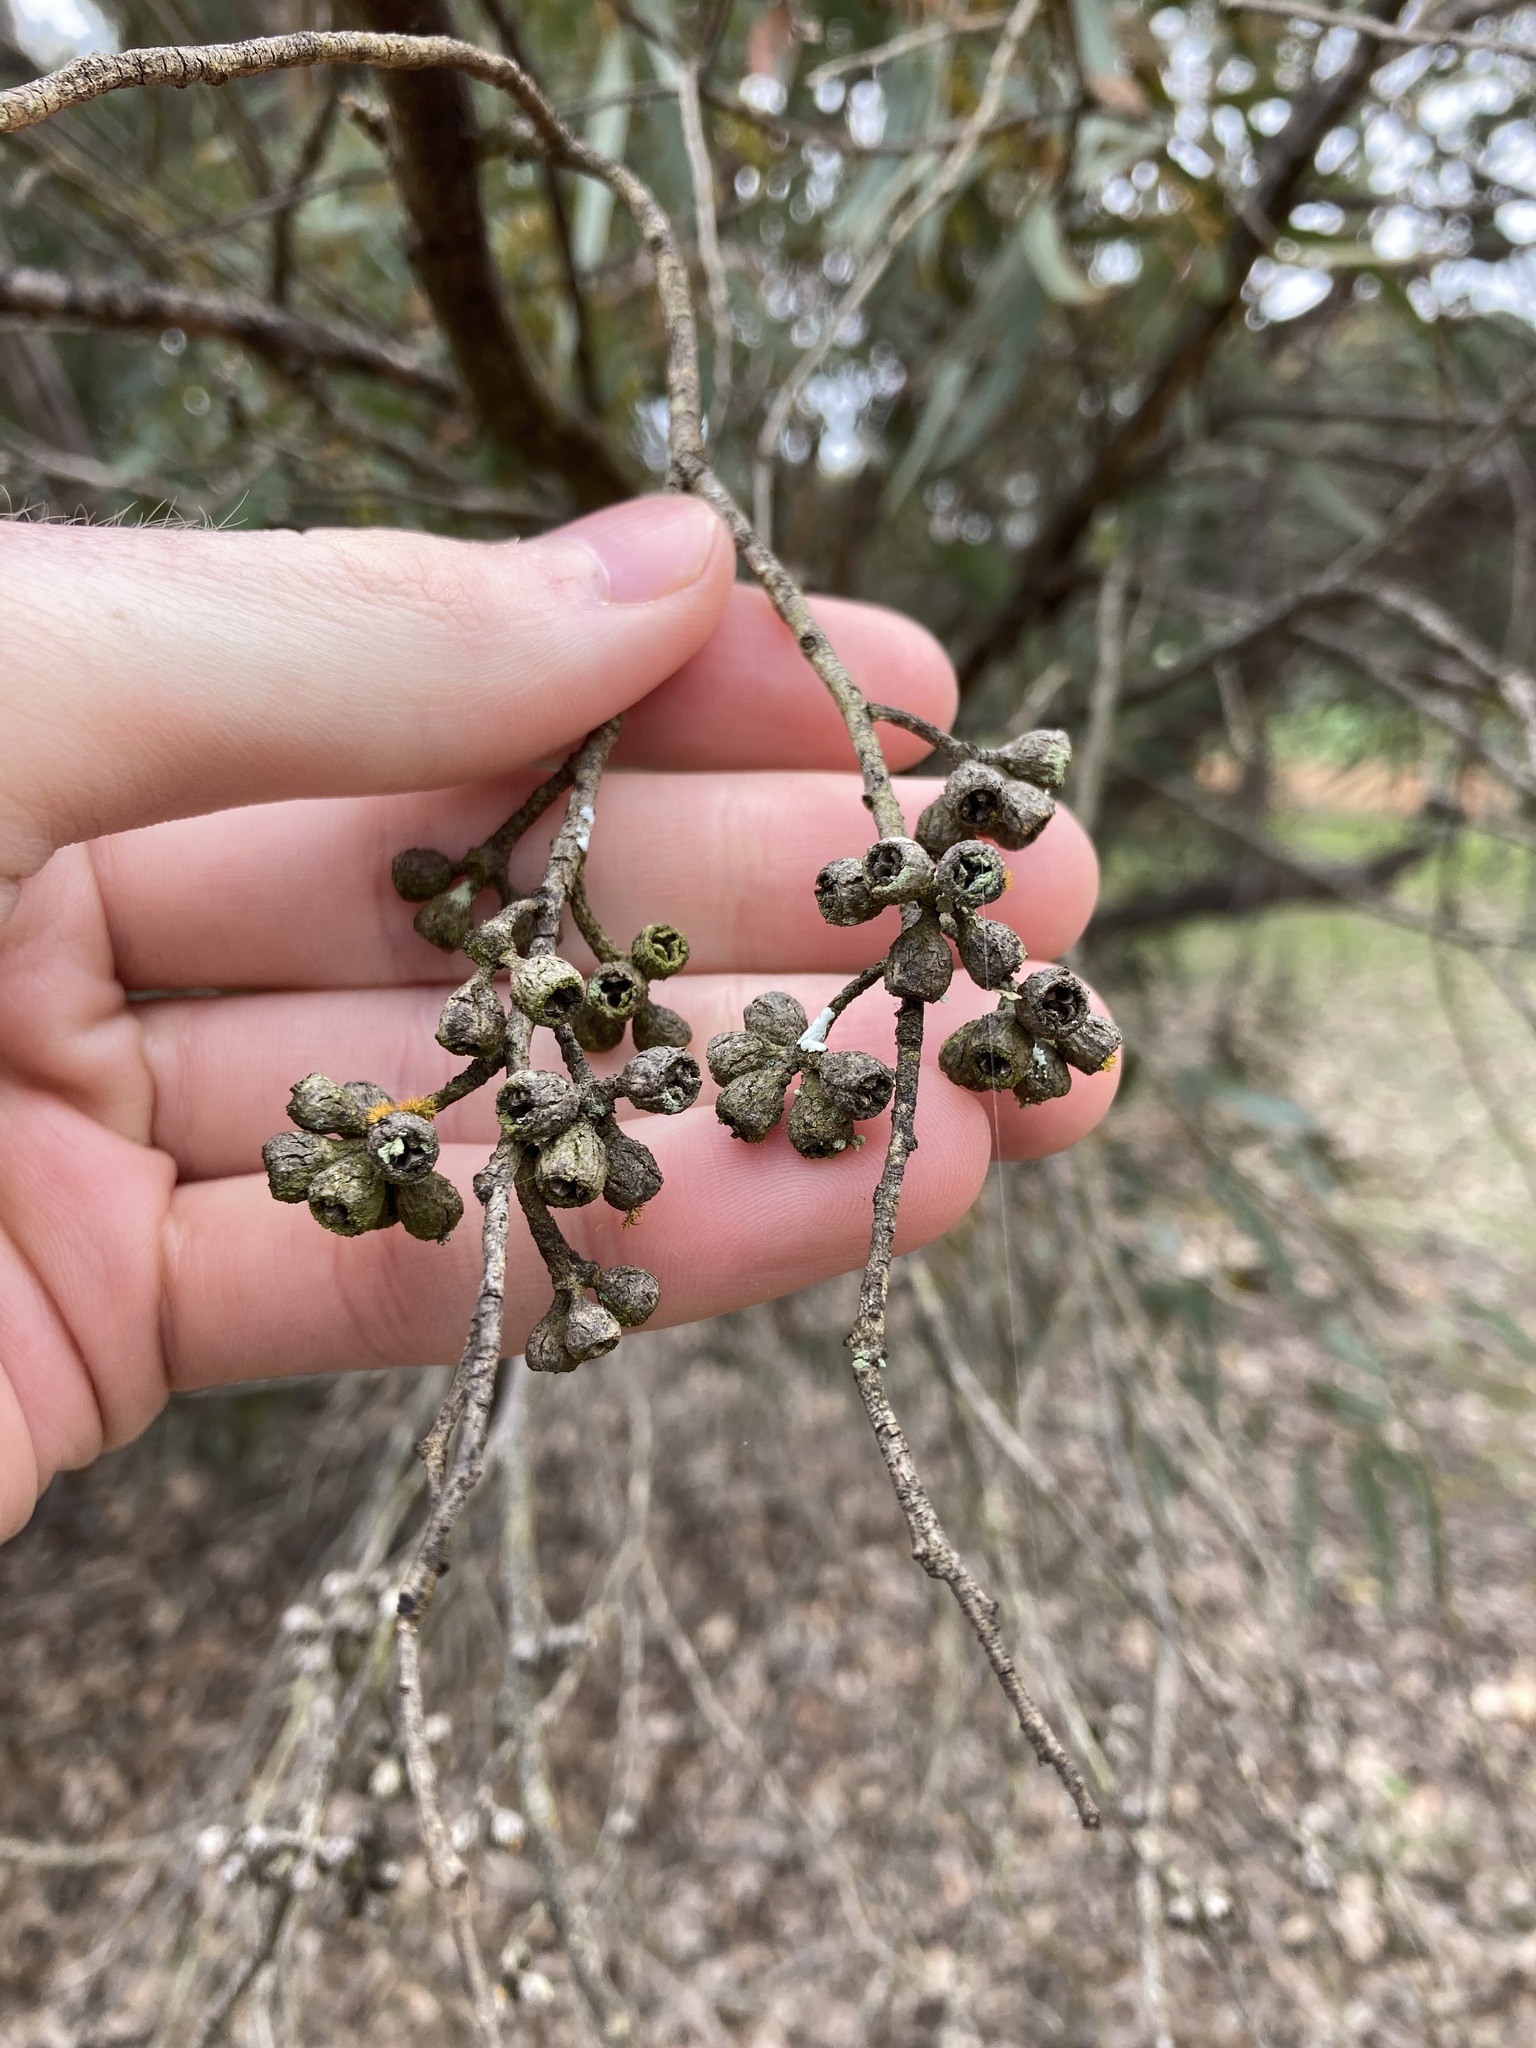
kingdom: Plantae
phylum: Tracheophyta
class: Magnoliopsida
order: Myrtales
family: Myrtaceae
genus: Eucalyptus
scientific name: Eucalyptus hebetifolia
